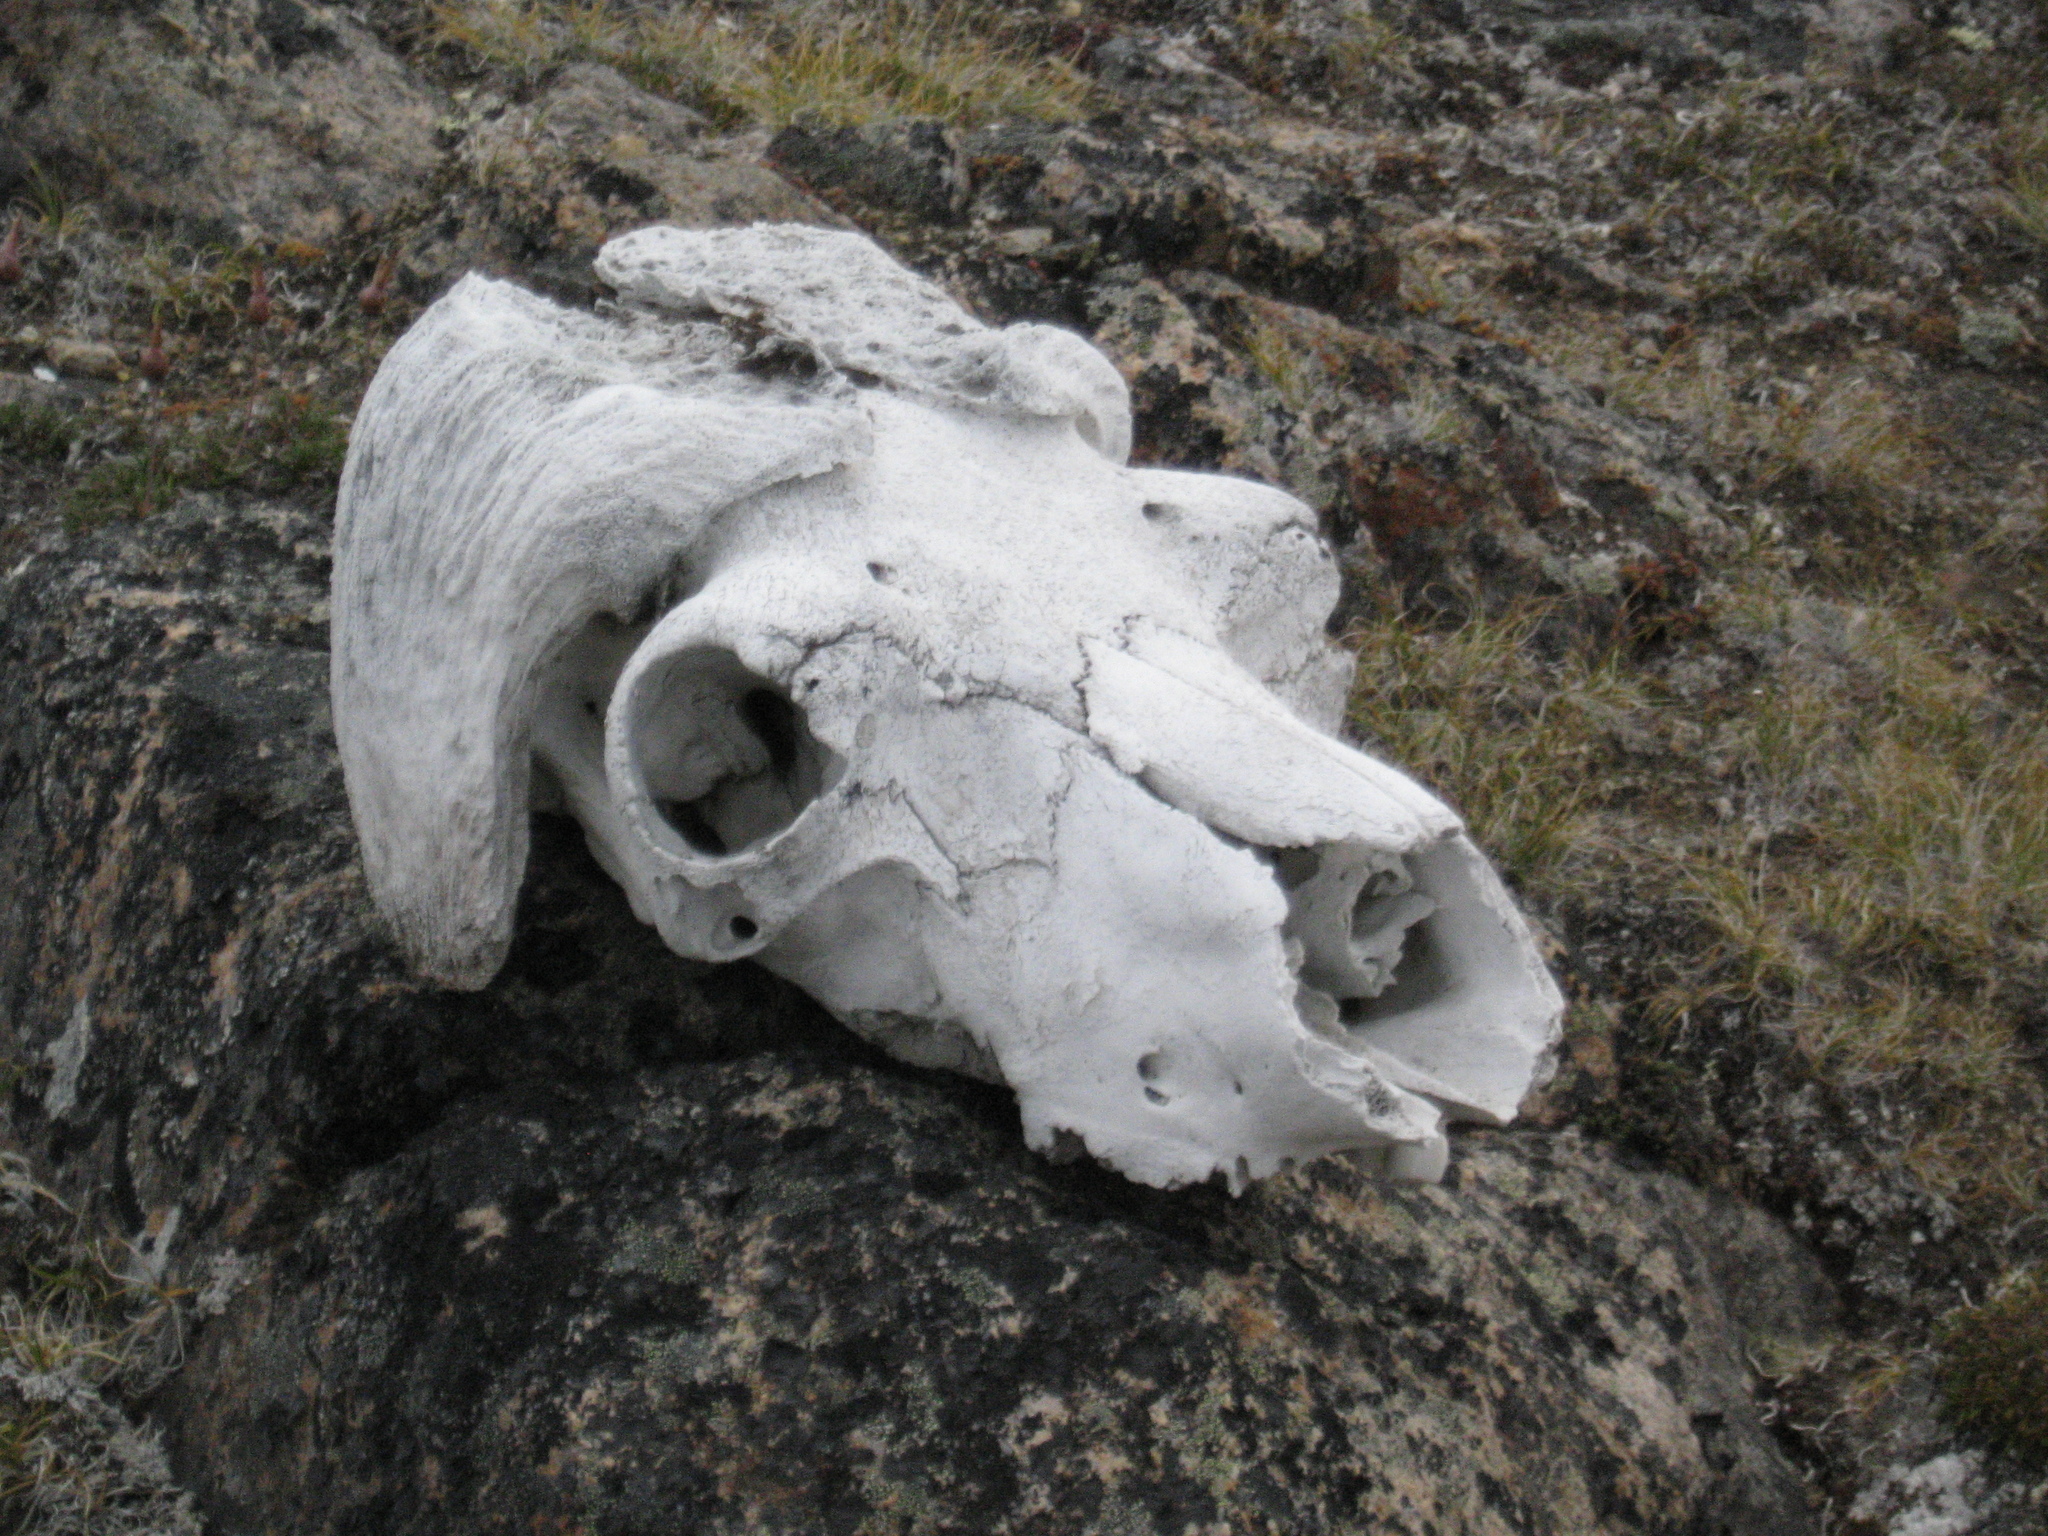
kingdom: Animalia
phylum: Chordata
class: Mammalia
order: Artiodactyla
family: Bovidae
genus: Ovibos
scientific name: Ovibos moschatus
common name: Muskox
